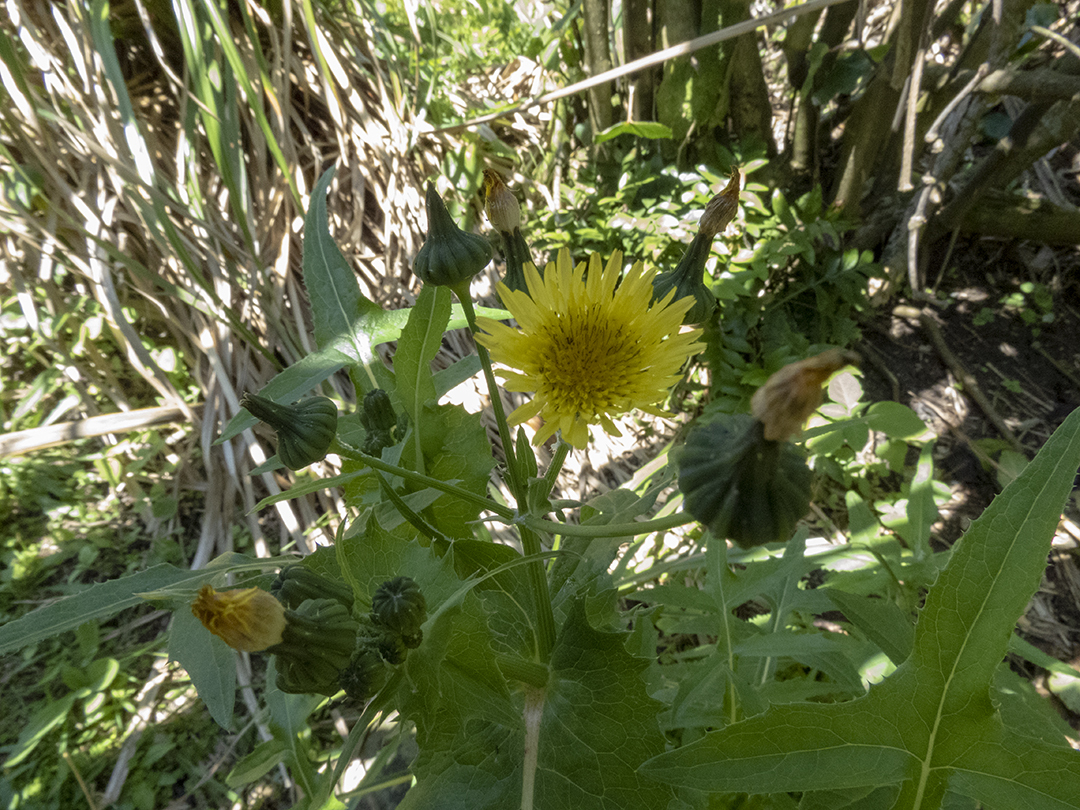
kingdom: Plantae
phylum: Tracheophyta
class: Magnoliopsida
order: Asterales
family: Asteraceae
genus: Sonchus
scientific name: Sonchus oleraceus
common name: Common sowthistle
